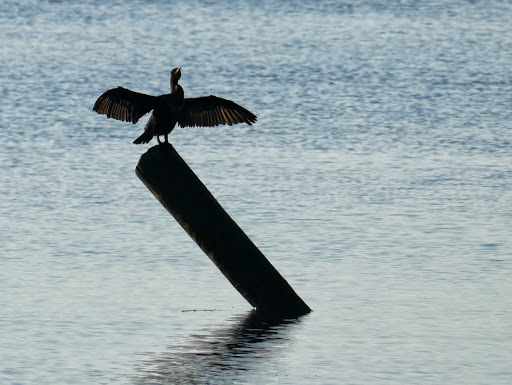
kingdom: Animalia
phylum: Chordata
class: Aves
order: Suliformes
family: Phalacrocoracidae
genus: Phalacrocorax
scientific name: Phalacrocorax auritus
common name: Double-crested cormorant
